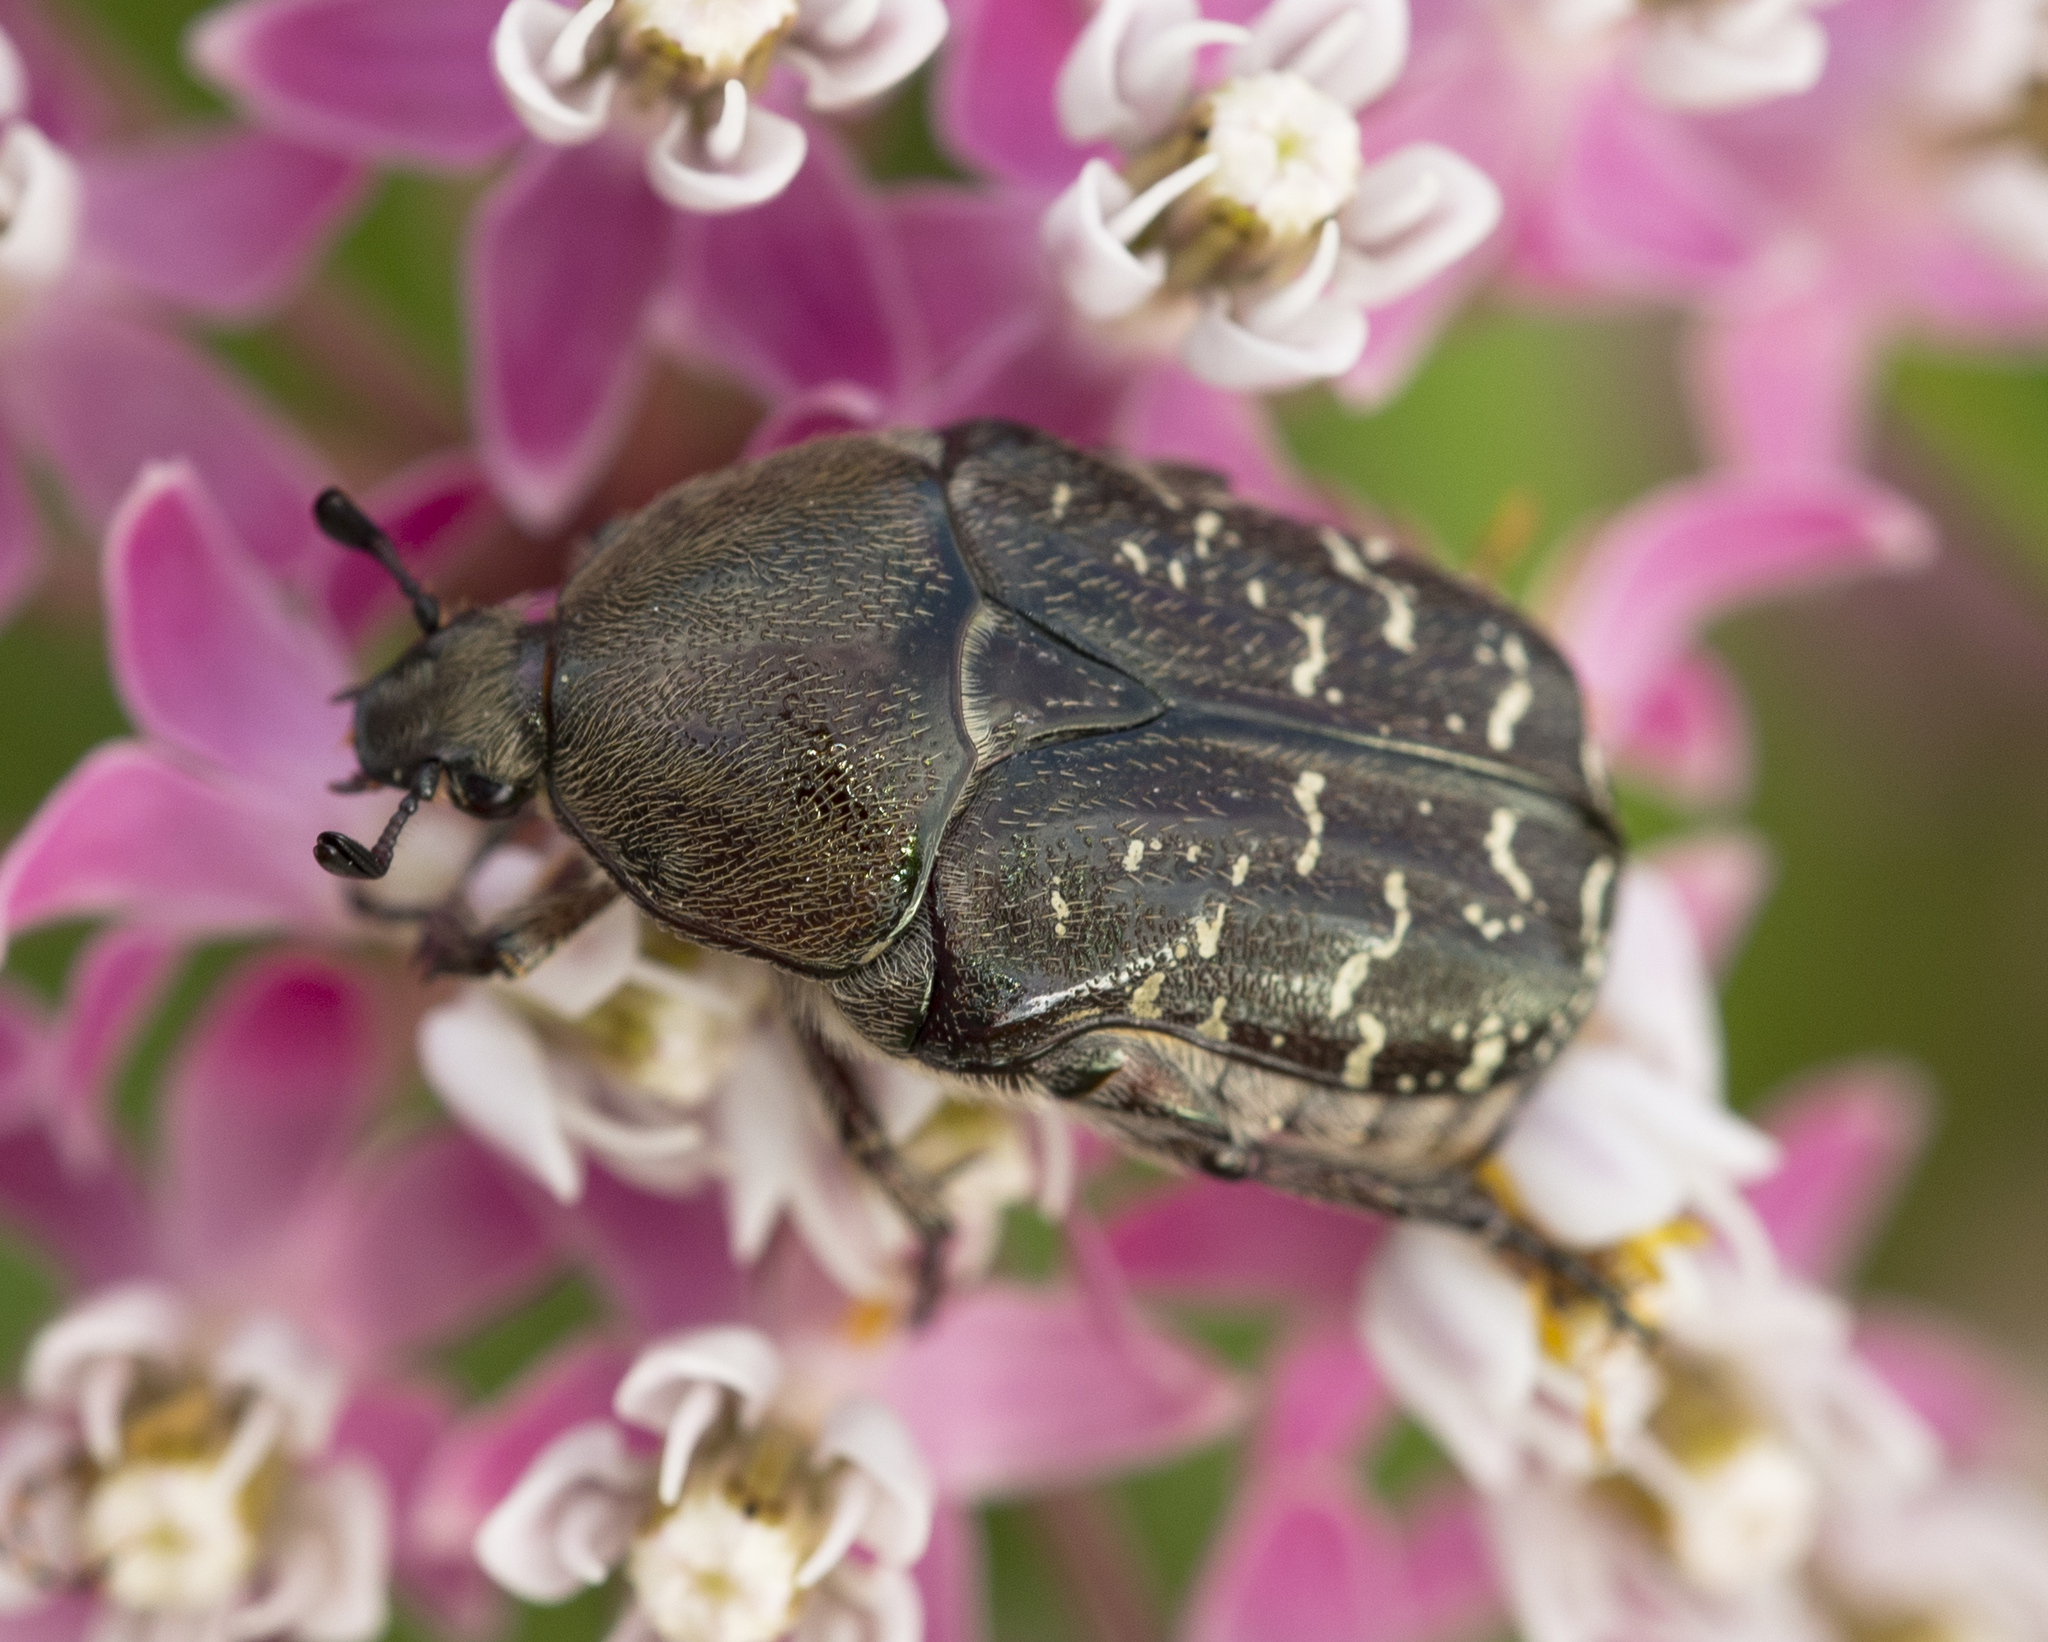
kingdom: Animalia
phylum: Arthropoda
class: Insecta
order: Coleoptera
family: Scarabaeidae
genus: Euphoria
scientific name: Euphoria sepulcralis
